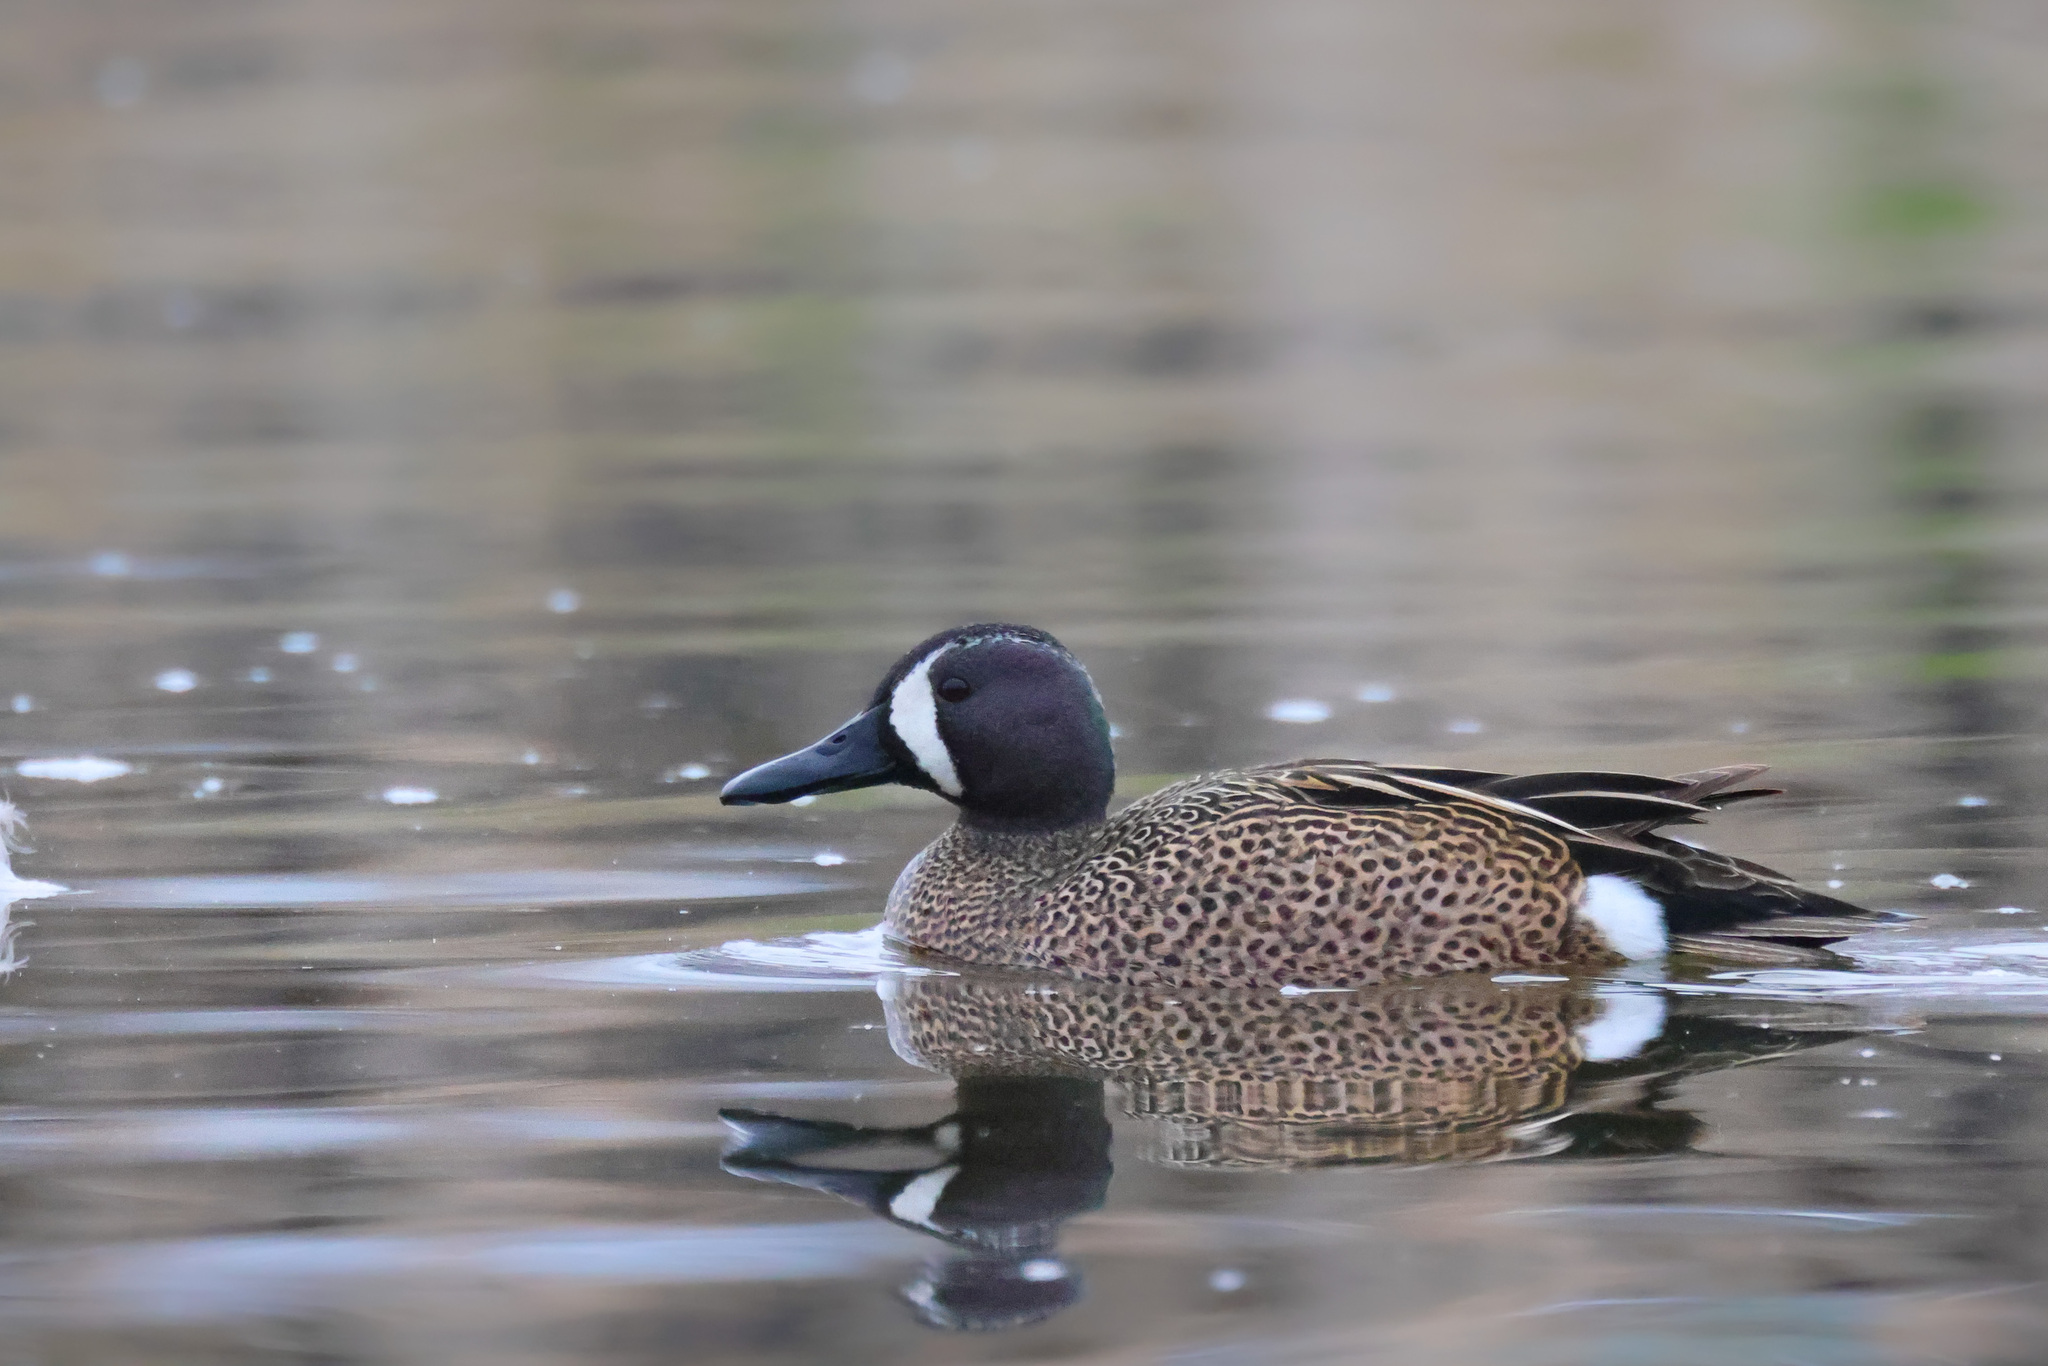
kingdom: Animalia
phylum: Chordata
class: Aves
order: Anseriformes
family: Anatidae
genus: Spatula
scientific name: Spatula discors
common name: Blue-winged teal
